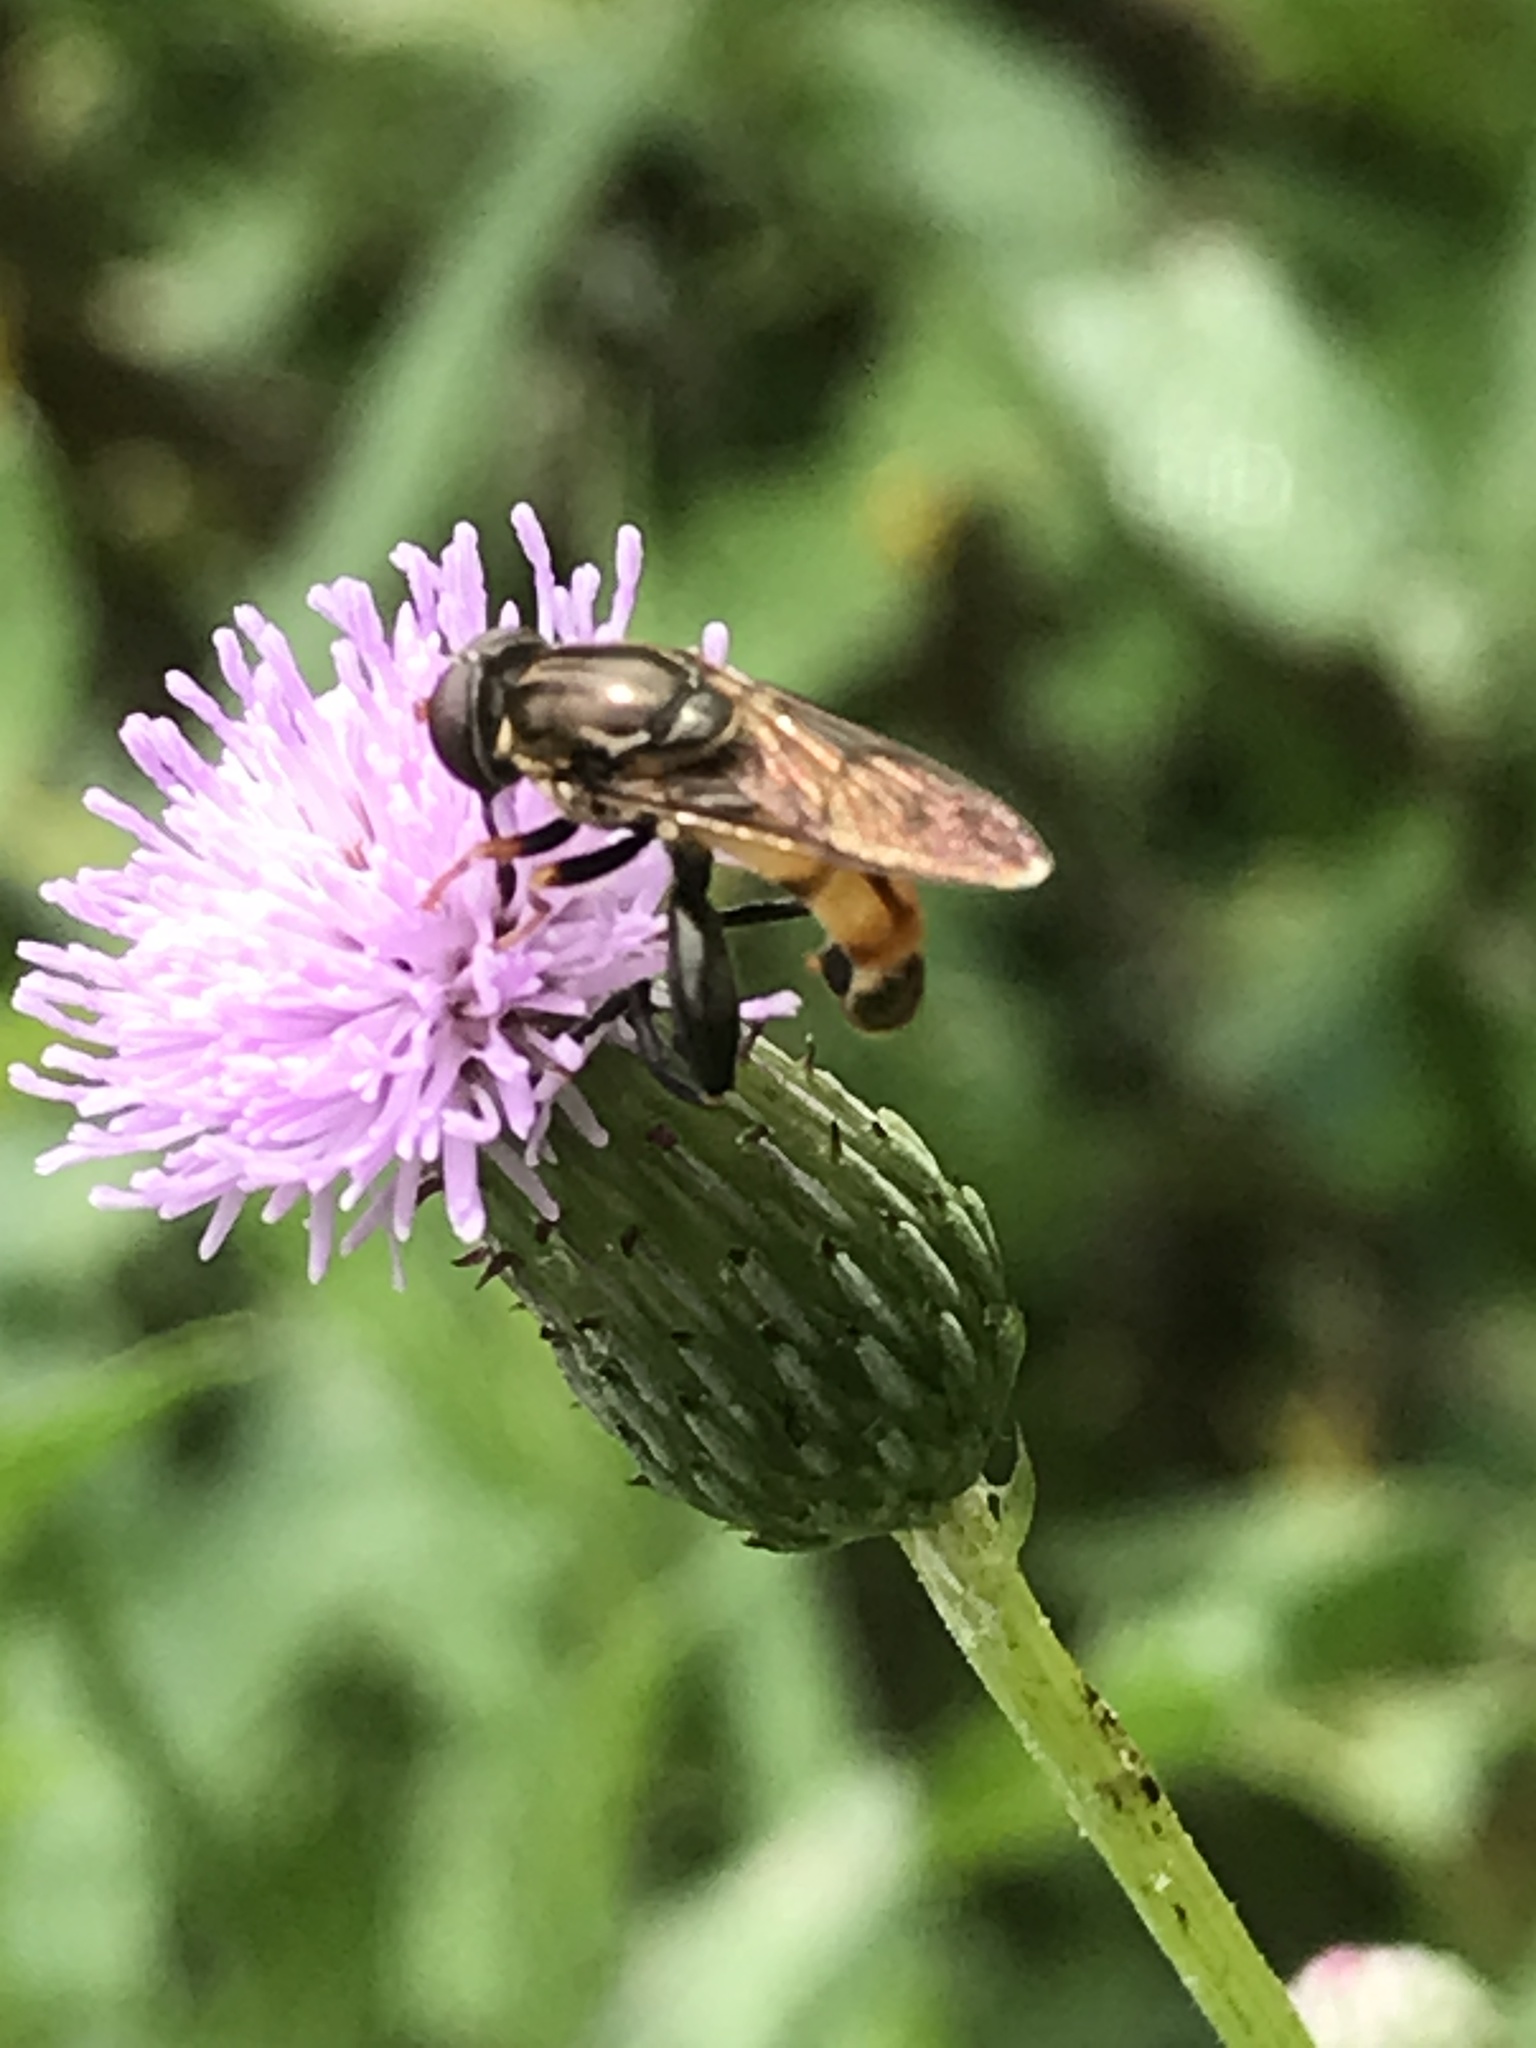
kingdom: Animalia
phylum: Arthropoda
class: Insecta
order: Diptera
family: Syrphidae
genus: Tropidia
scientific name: Tropidia quadrata
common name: Common thick-legged fly
